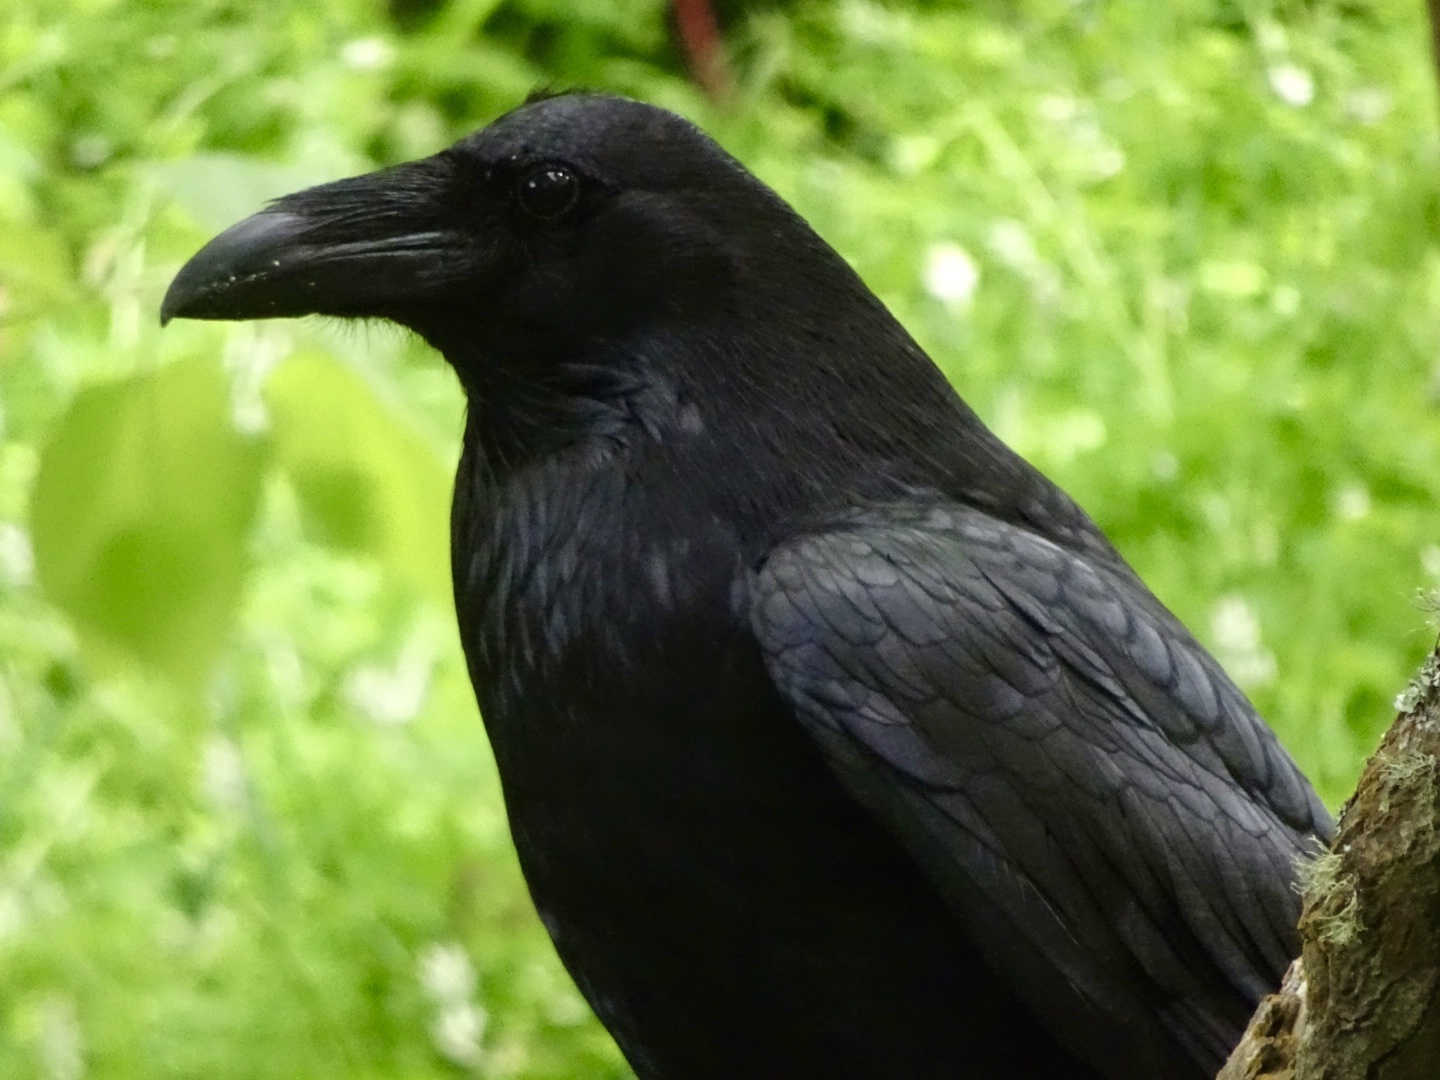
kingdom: Animalia
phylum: Chordata
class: Aves
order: Passeriformes
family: Corvidae
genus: Corvus
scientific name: Corvus corax
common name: Common raven
